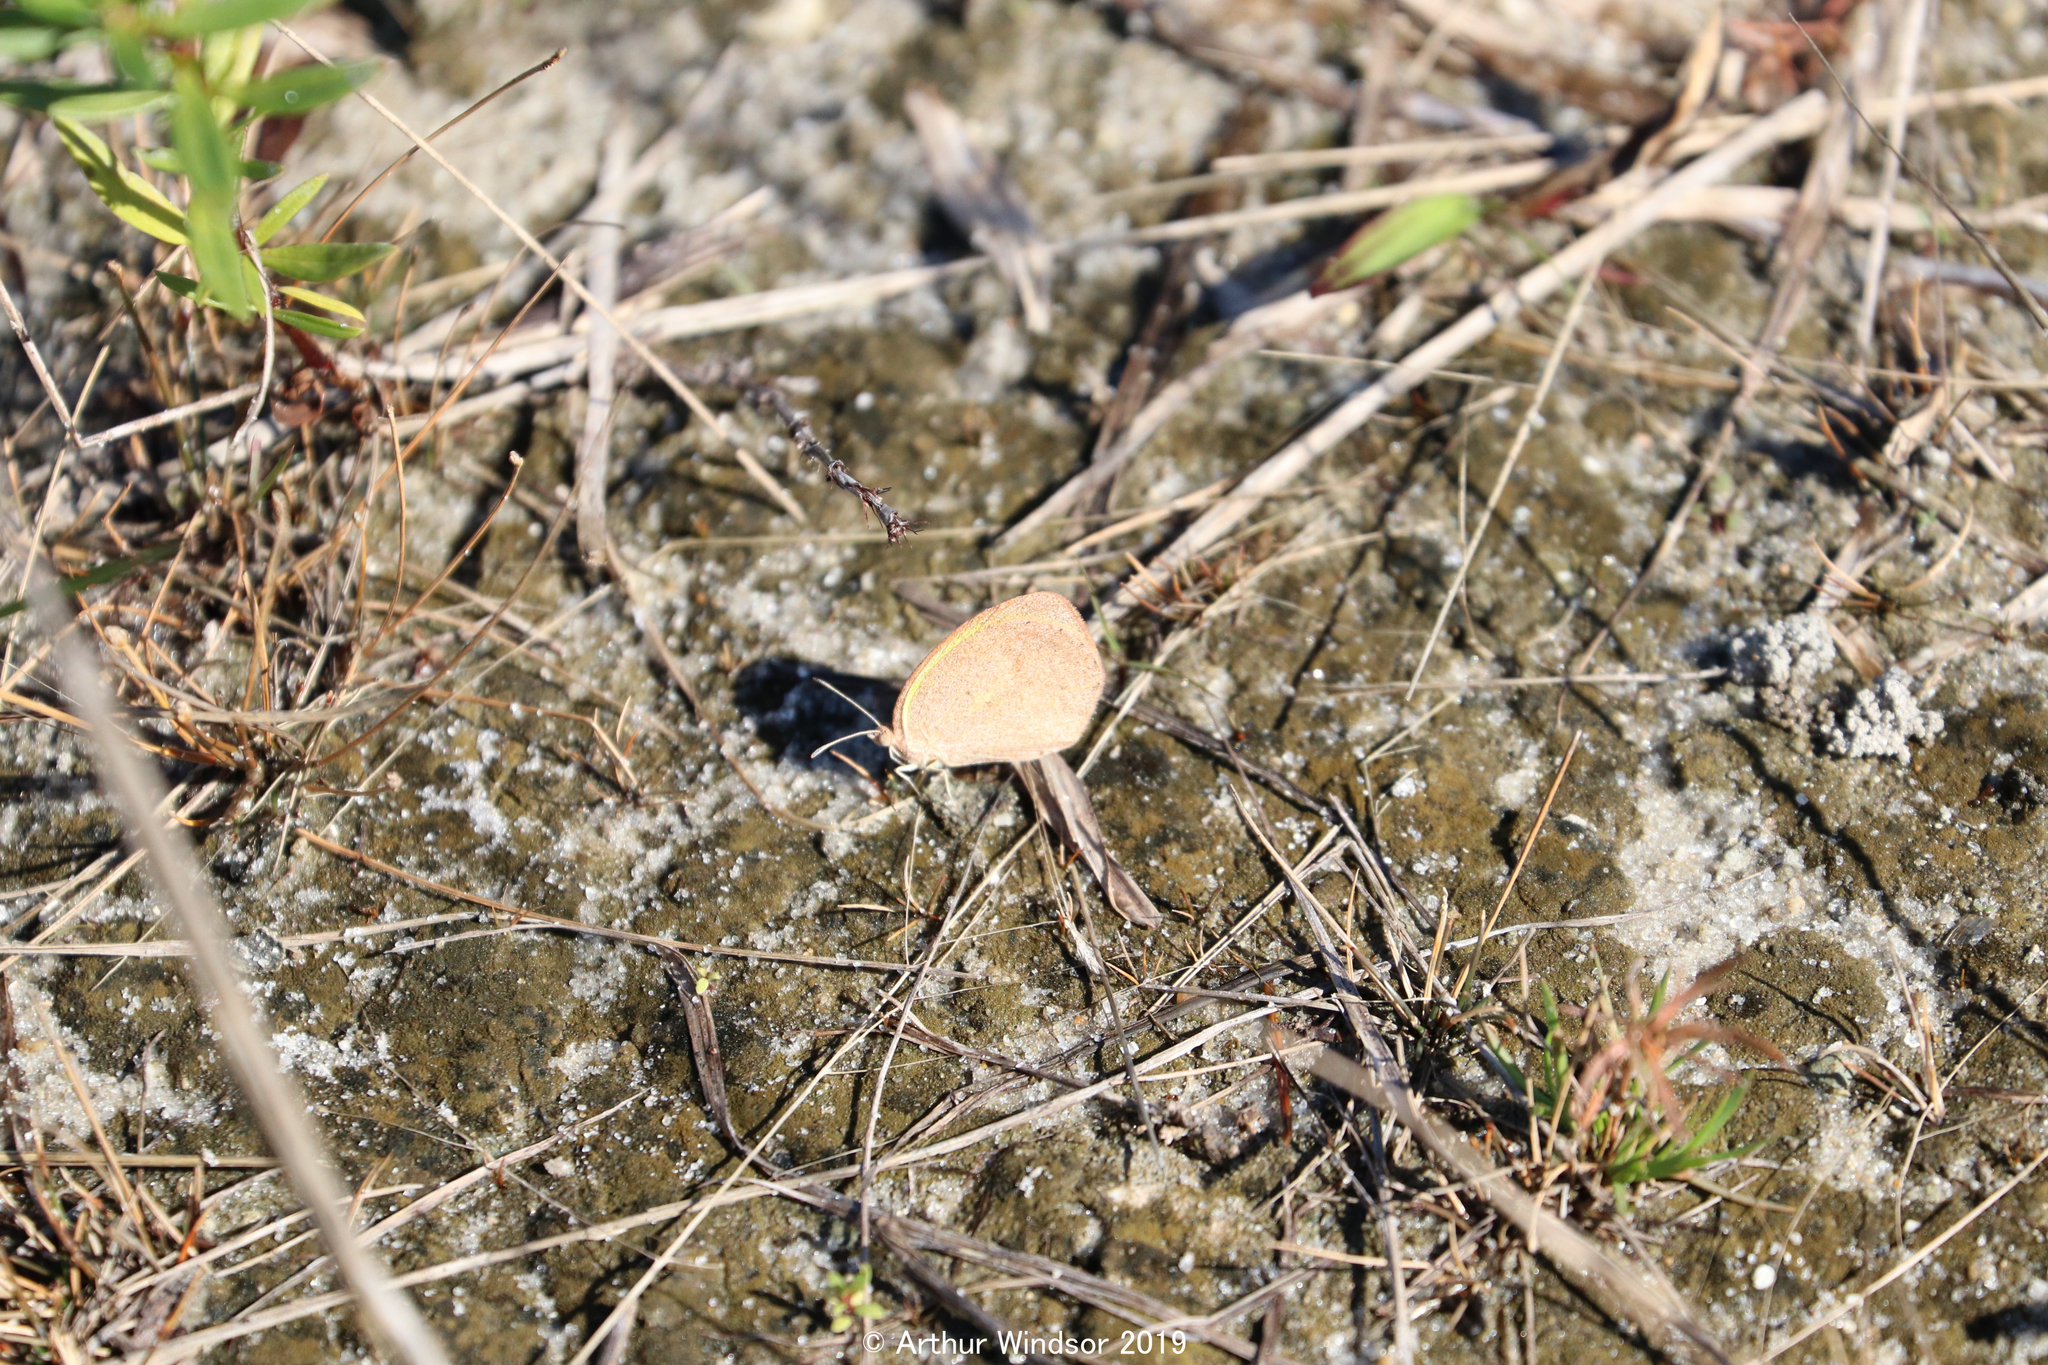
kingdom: Animalia
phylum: Arthropoda
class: Insecta
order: Lepidoptera
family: Pieridae
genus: Eurema
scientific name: Eurema daira
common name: Barred sulphur
